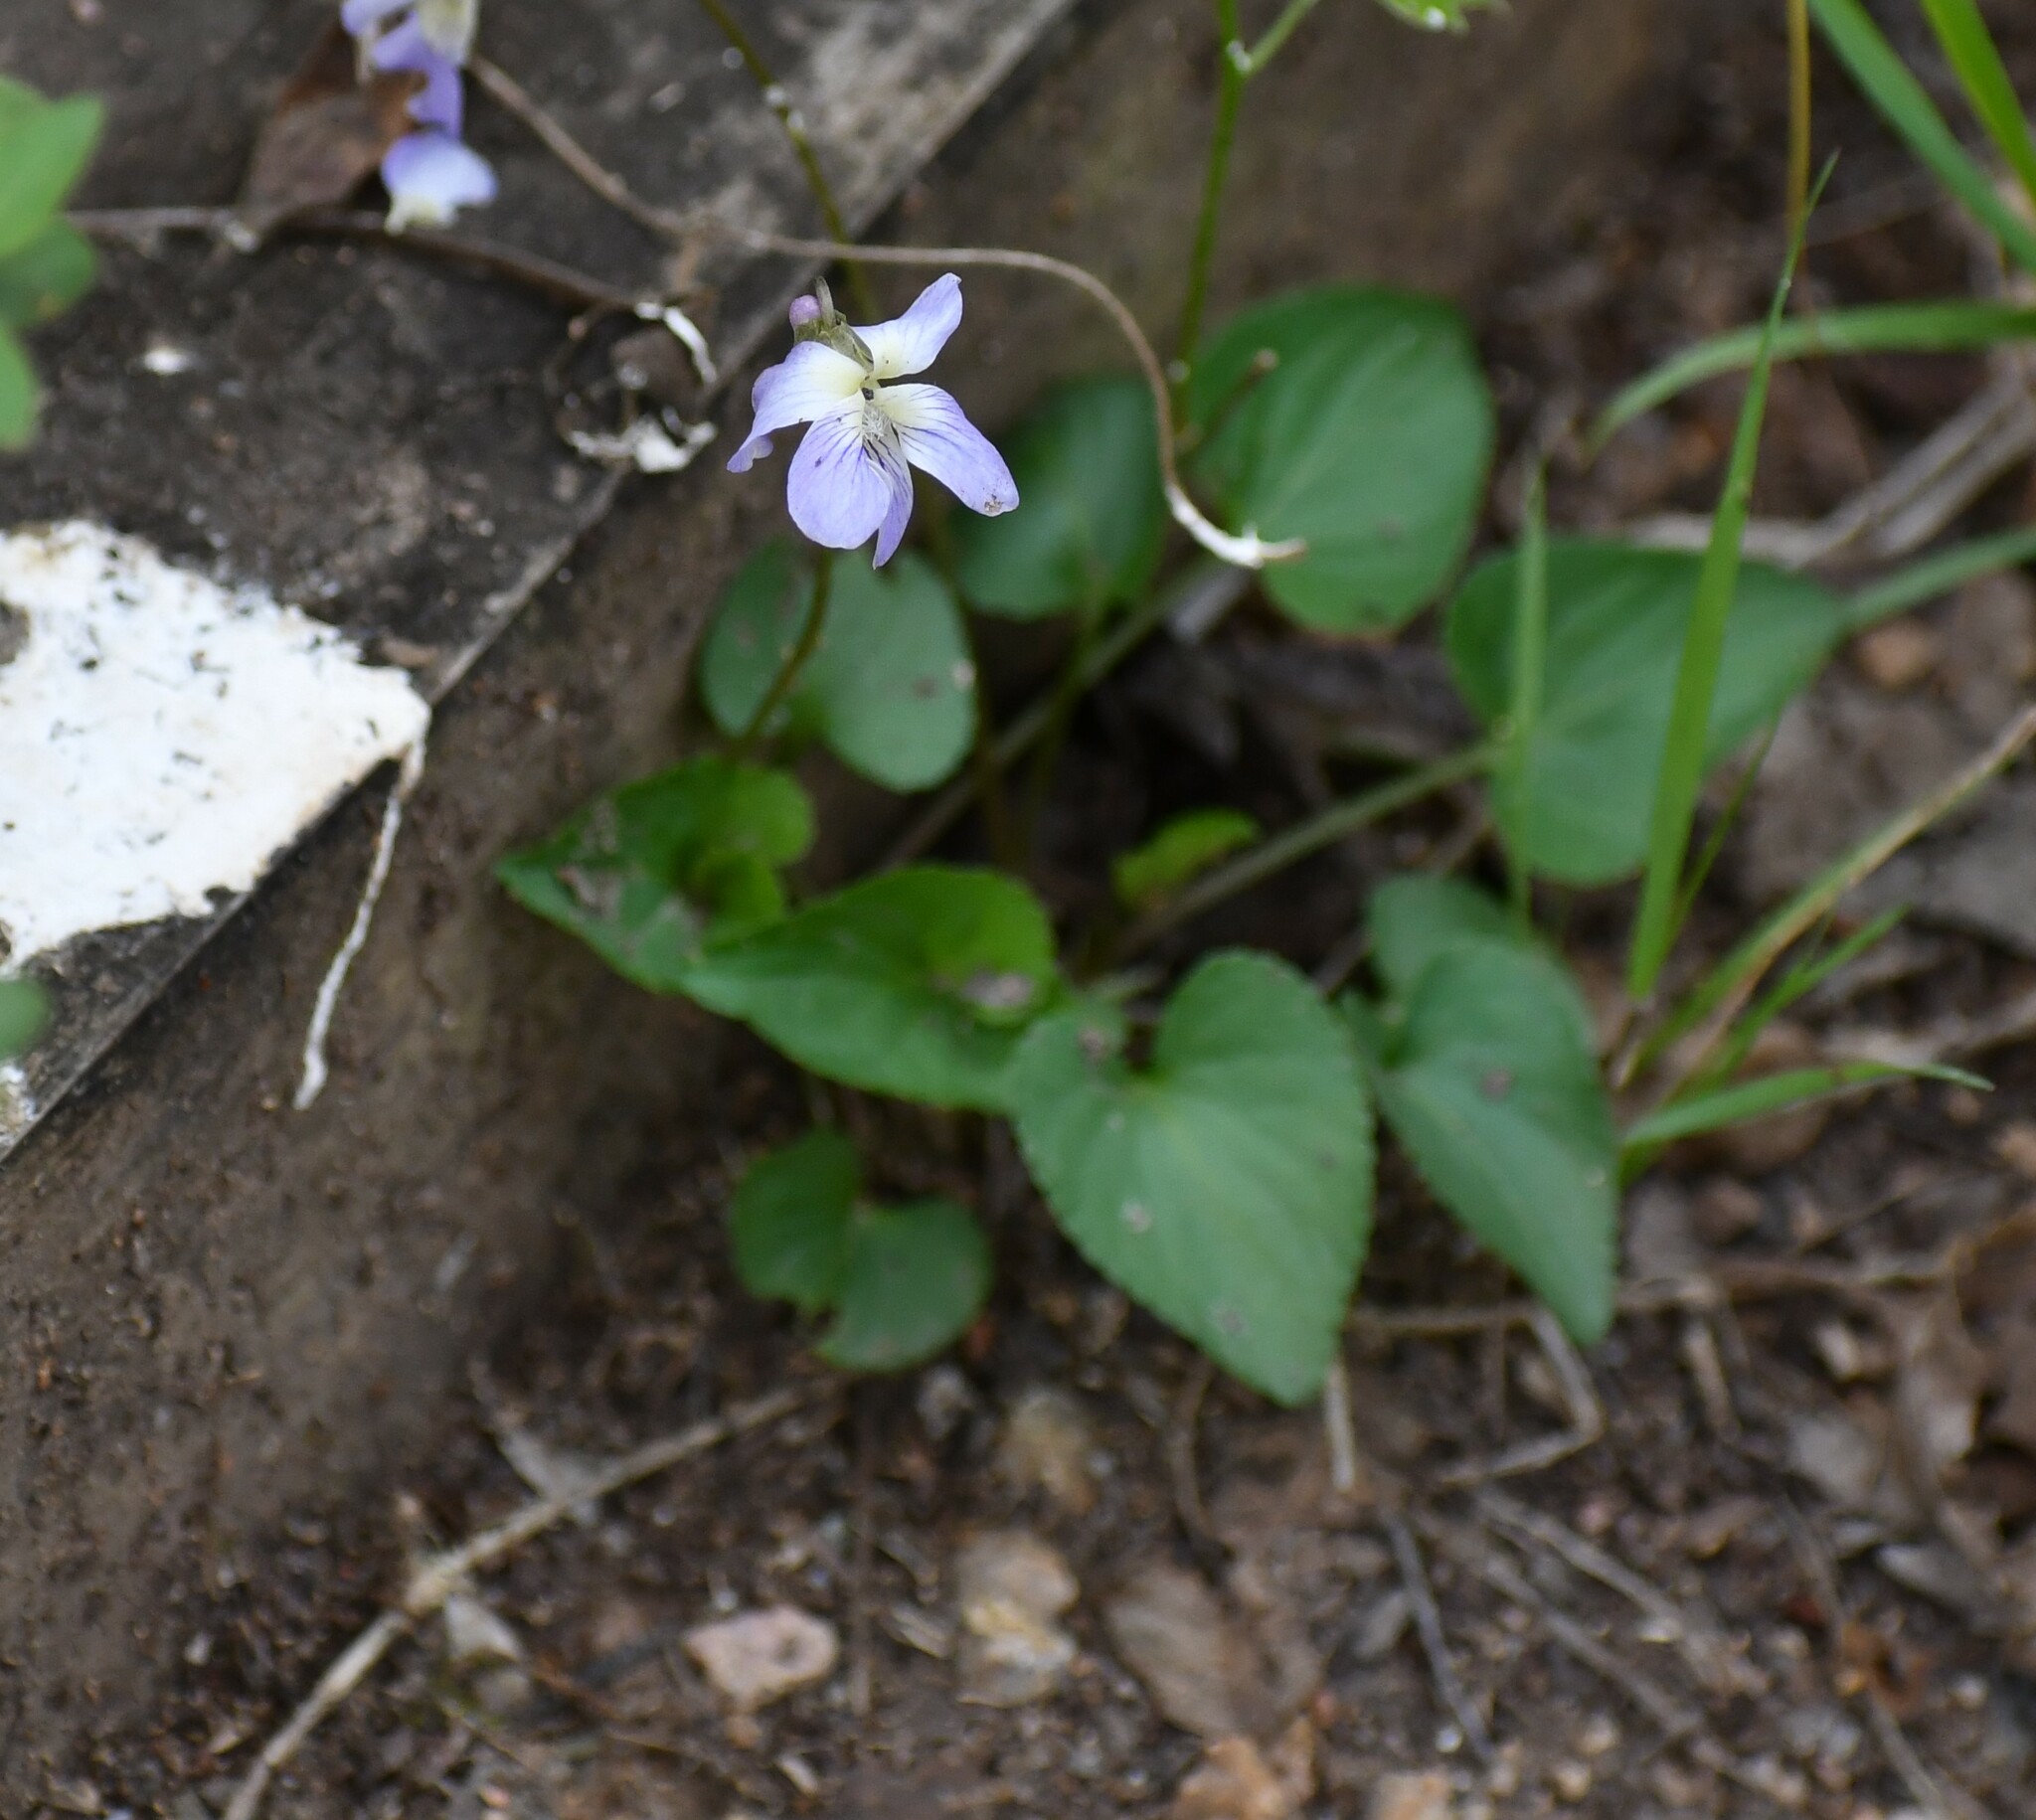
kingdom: Plantae
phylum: Tracheophyta
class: Magnoliopsida
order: Malpighiales
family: Violaceae
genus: Viola
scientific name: Viola missouriensis
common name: Missouri violet
